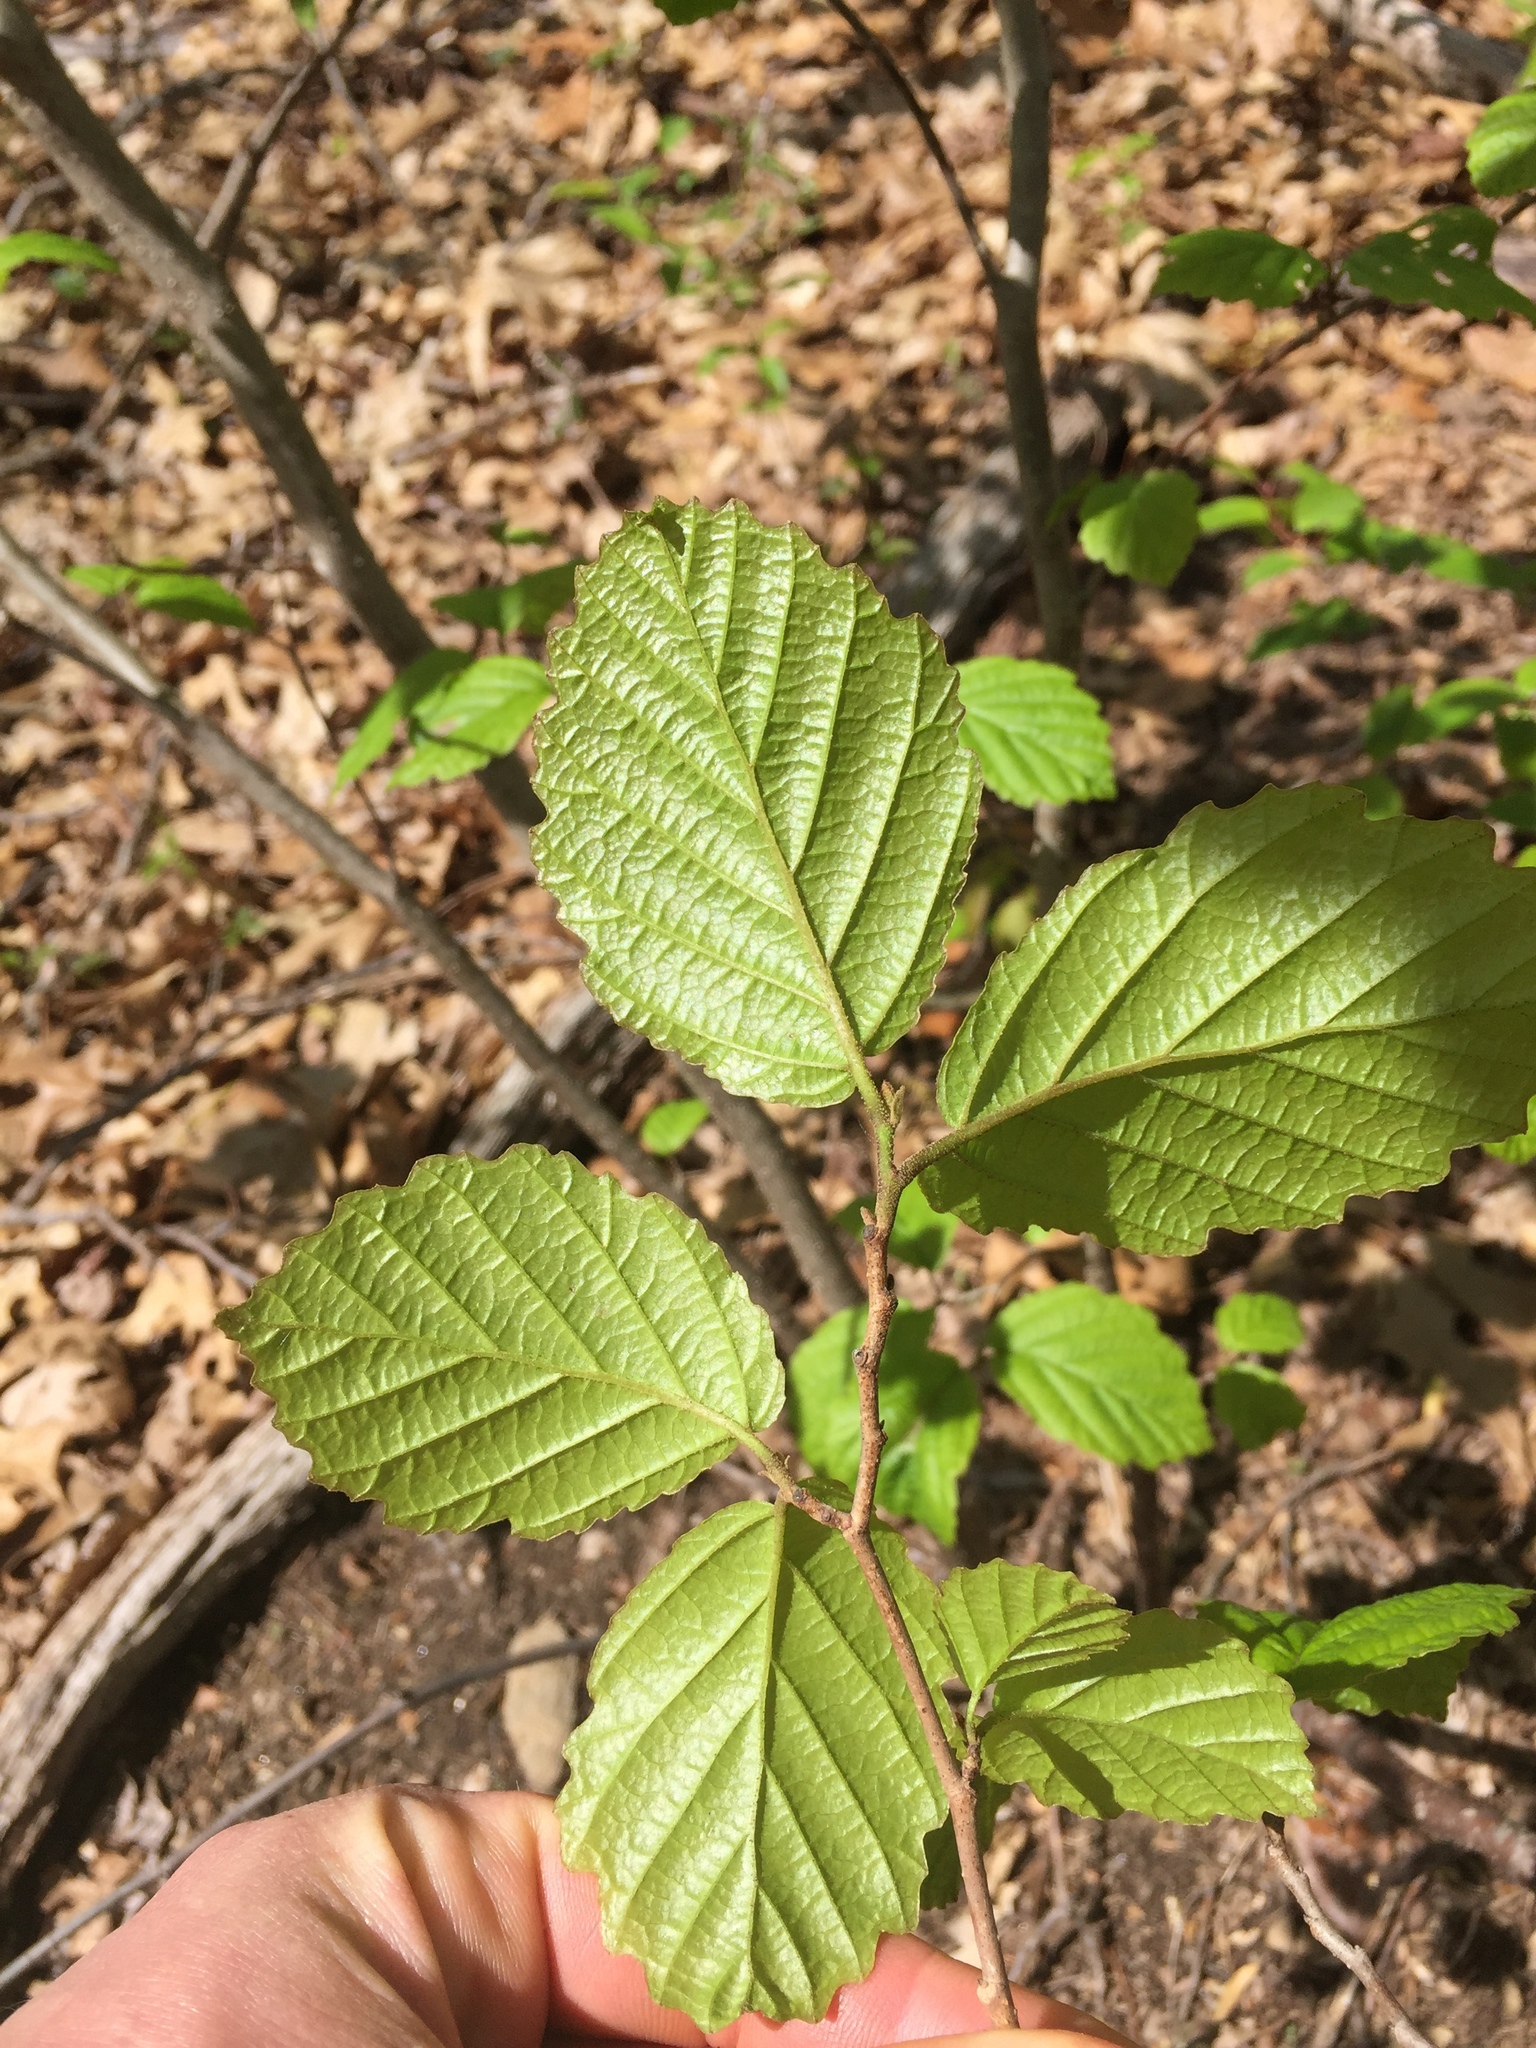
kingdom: Plantae
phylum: Tracheophyta
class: Magnoliopsida
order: Saxifragales
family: Hamamelidaceae
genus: Hamamelis
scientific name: Hamamelis virginiana
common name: Witch-hazel
